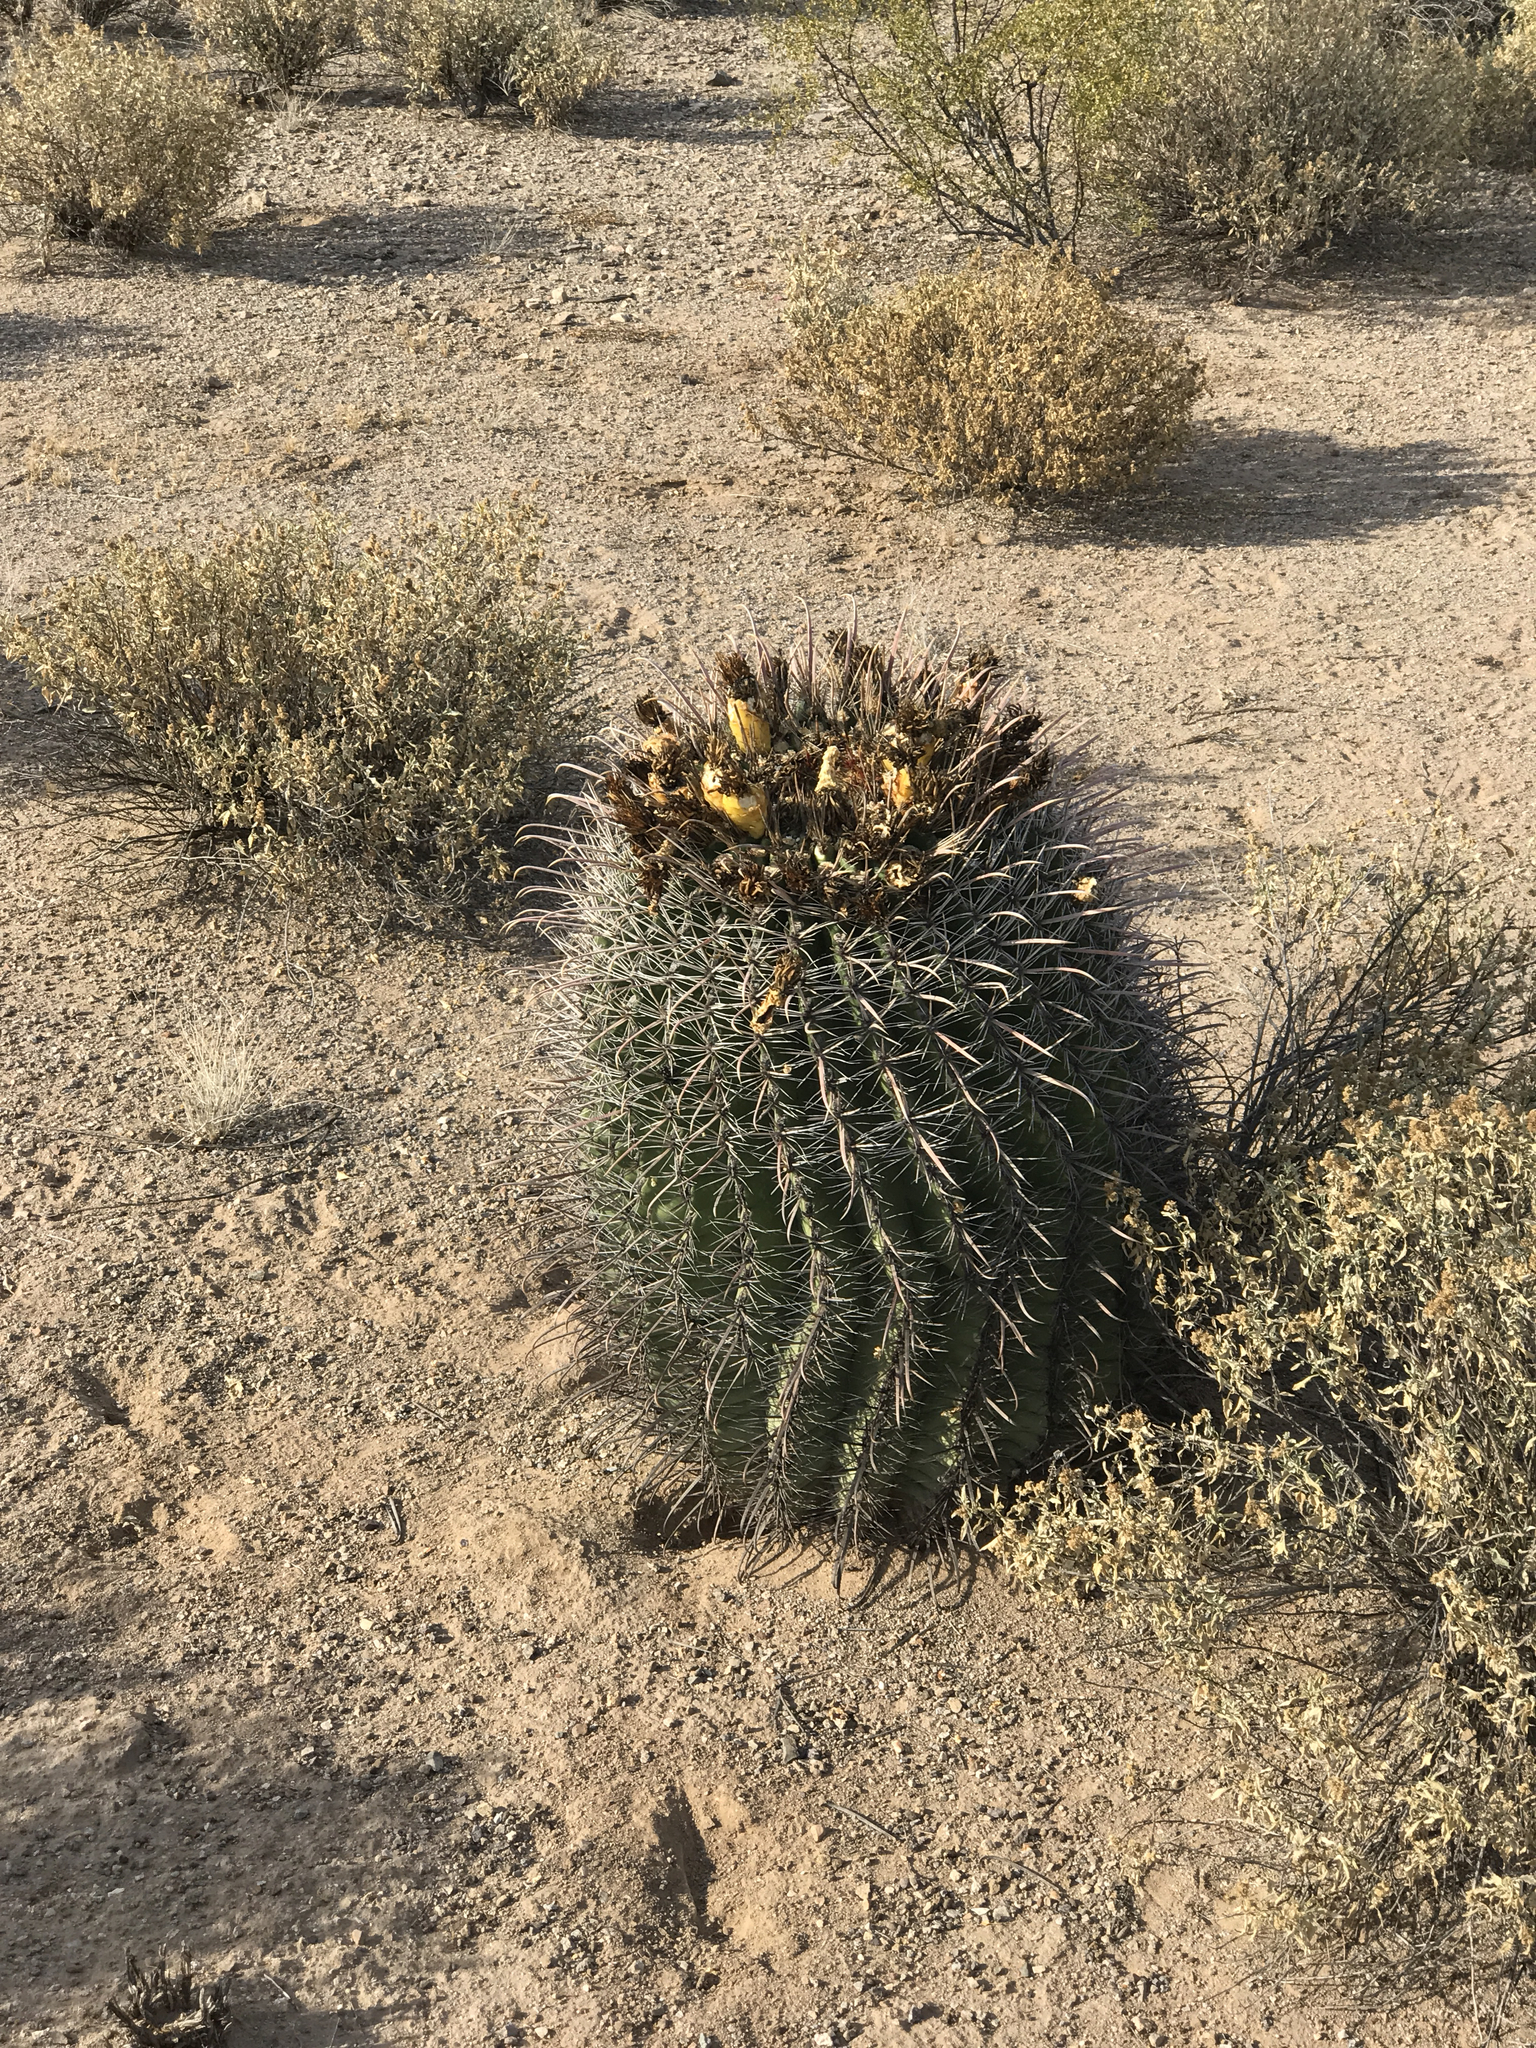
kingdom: Plantae
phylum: Tracheophyta
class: Magnoliopsida
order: Caryophyllales
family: Cactaceae
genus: Ferocactus
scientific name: Ferocactus wislizeni
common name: Candy barrel cactus
